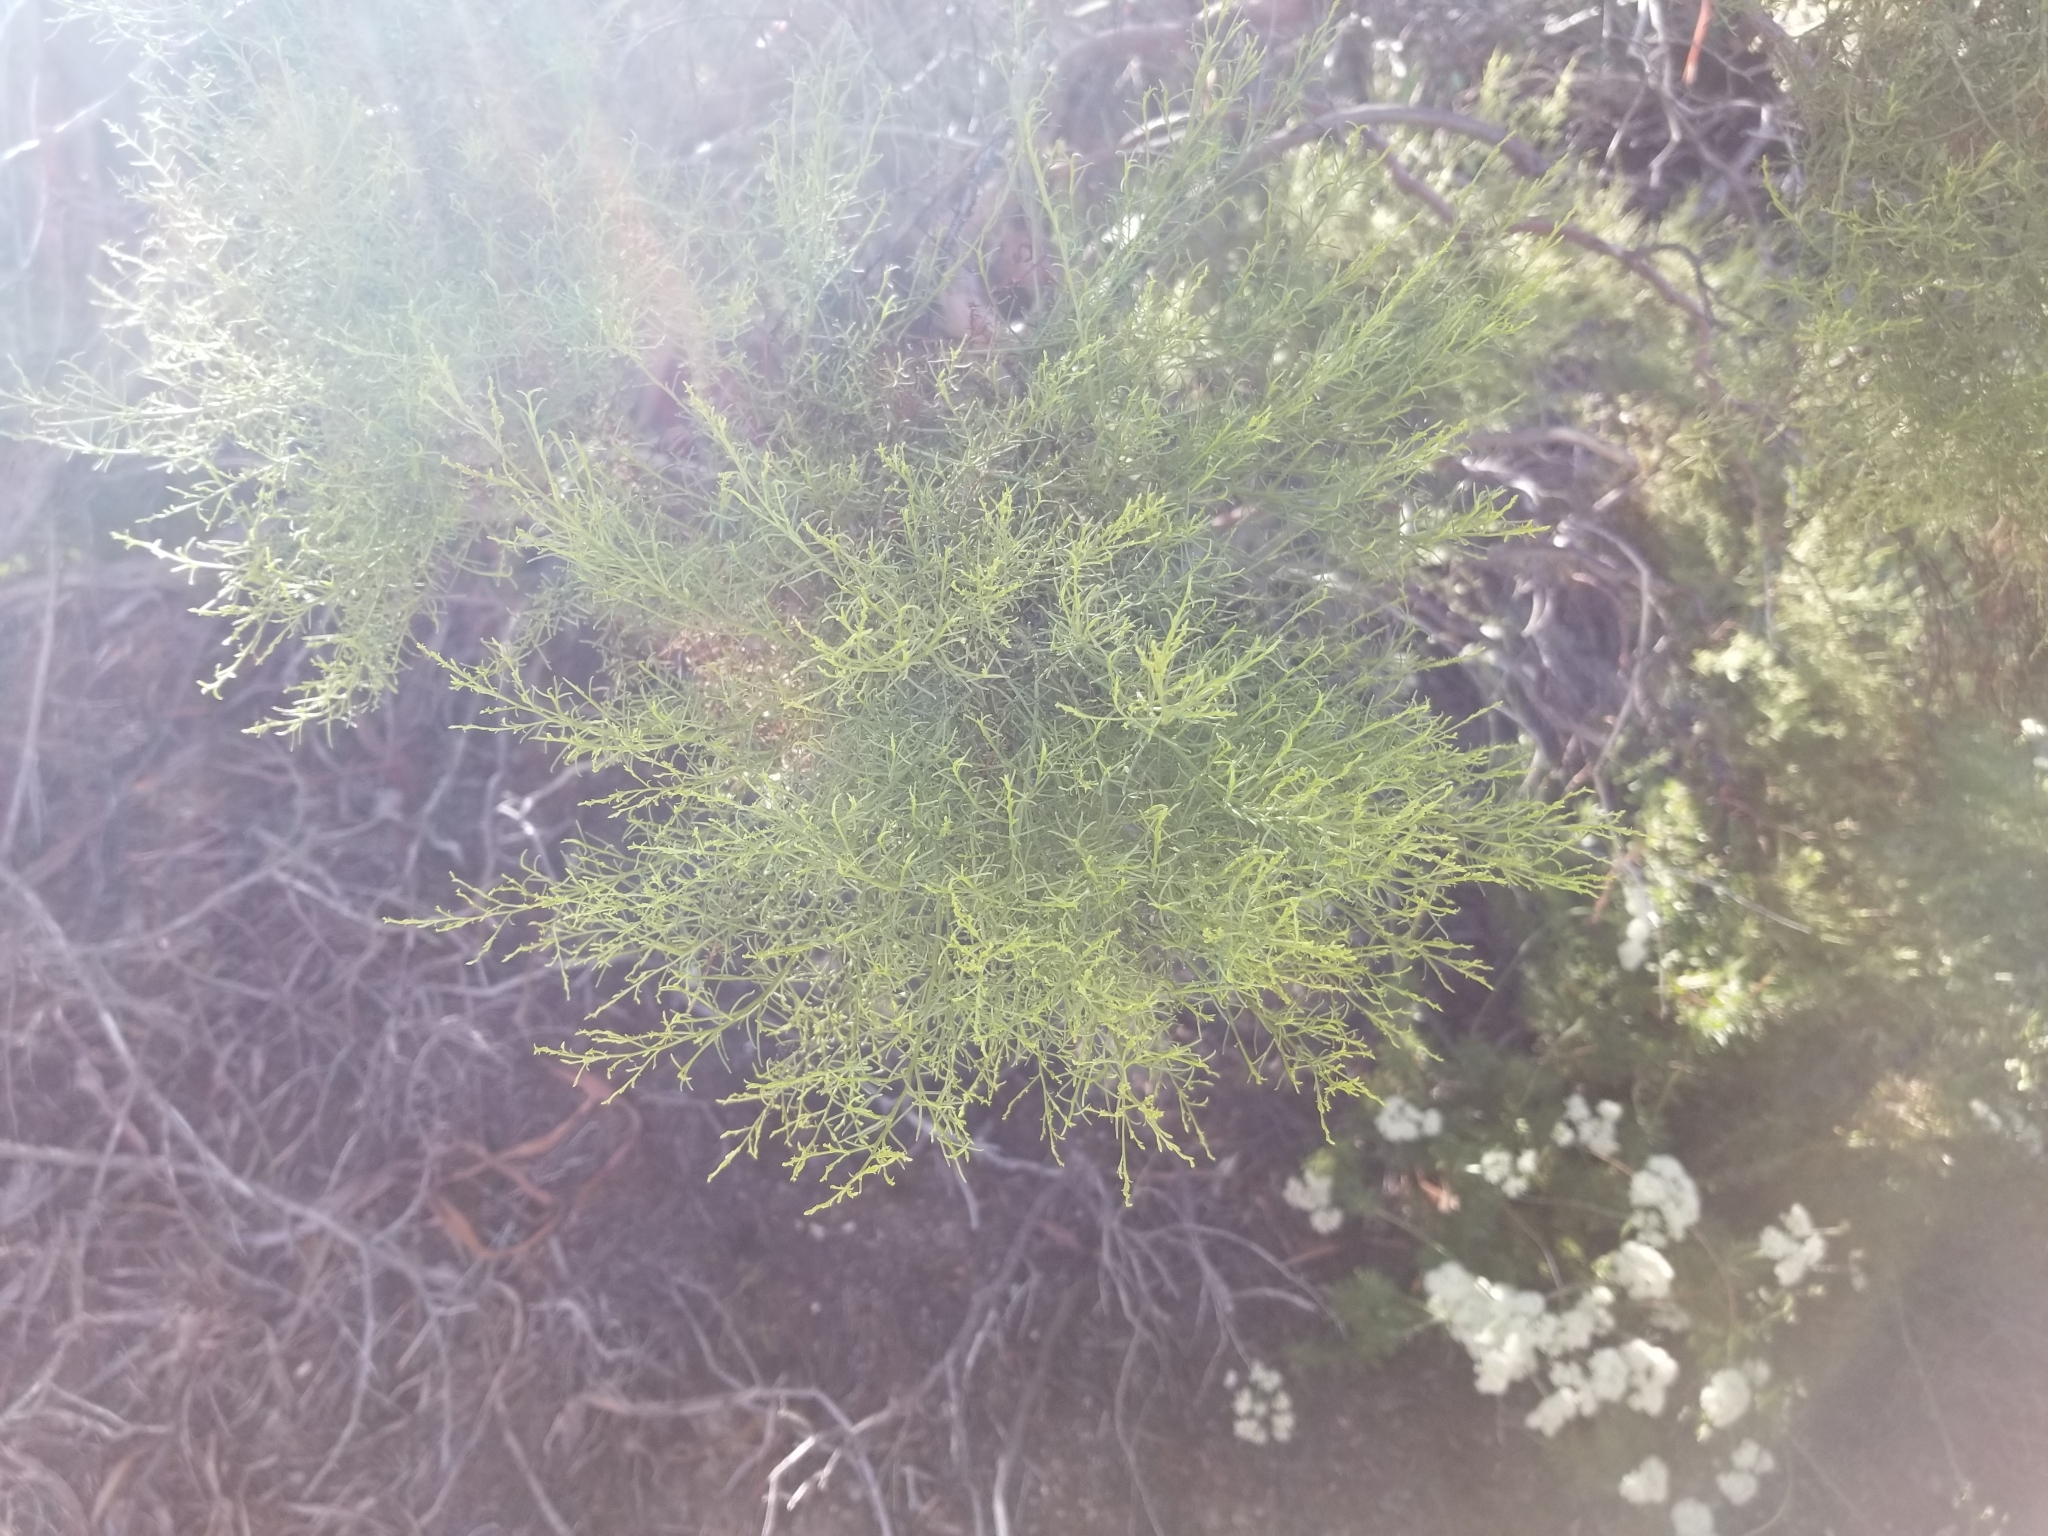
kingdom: Plantae
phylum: Tracheophyta
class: Magnoliopsida
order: Rosales
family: Rosaceae
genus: Adenostoma
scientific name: Adenostoma sparsifolium
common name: Red shank
